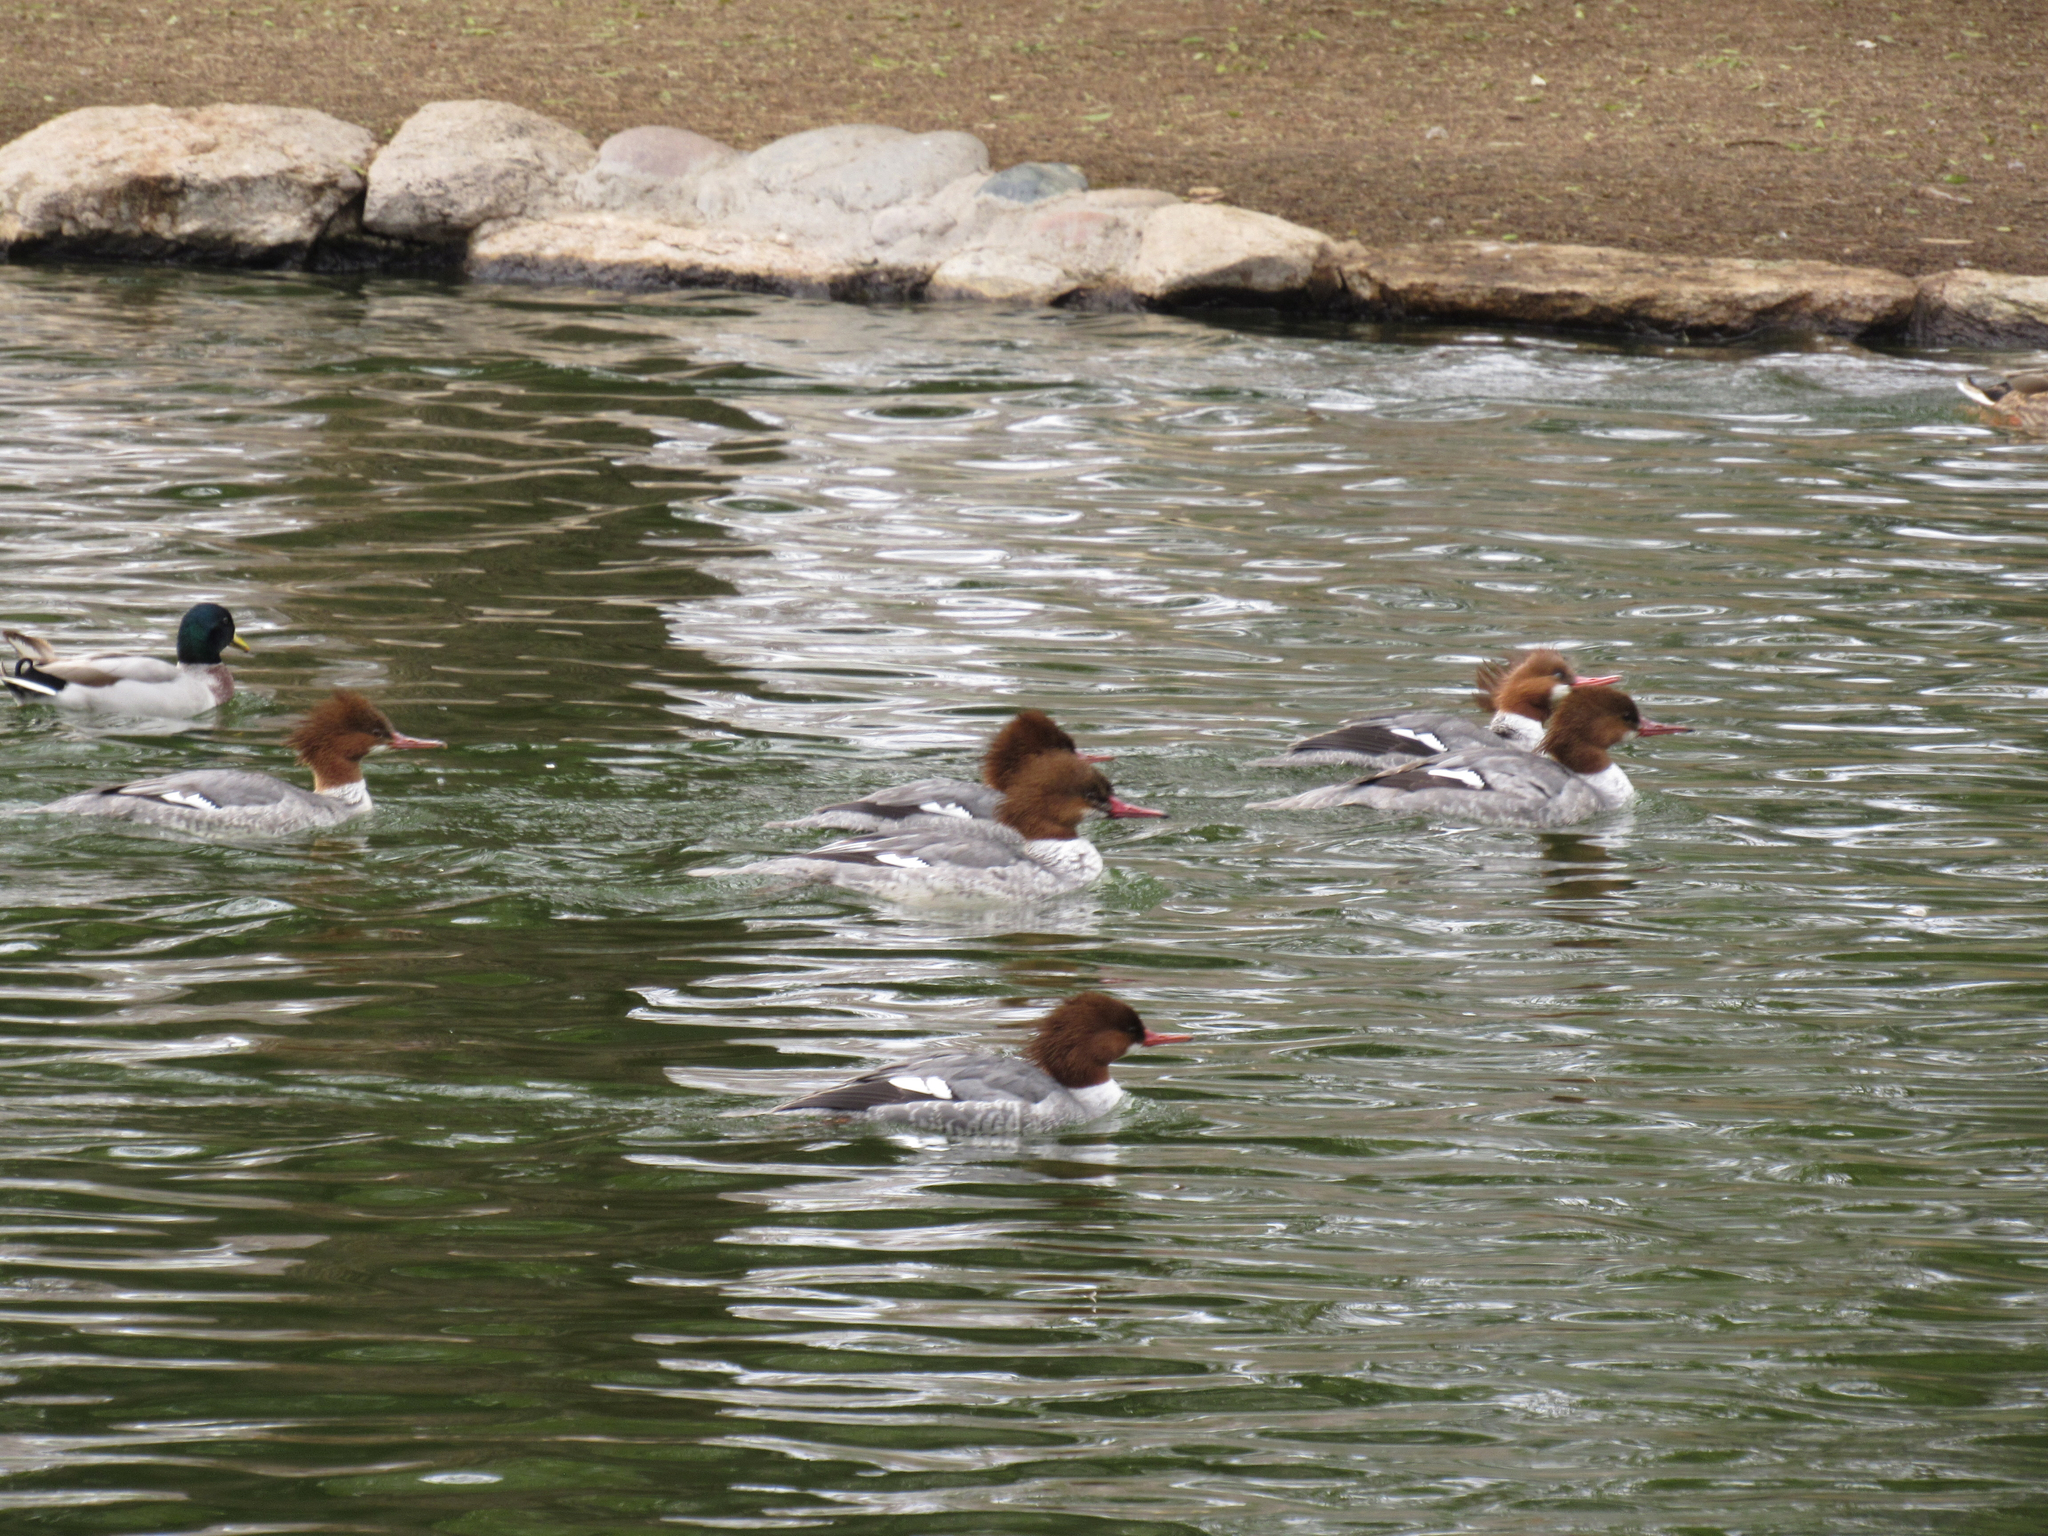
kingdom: Animalia
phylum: Chordata
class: Aves
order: Anseriformes
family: Anatidae
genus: Mergus
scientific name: Mergus merganser
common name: Common merganser
